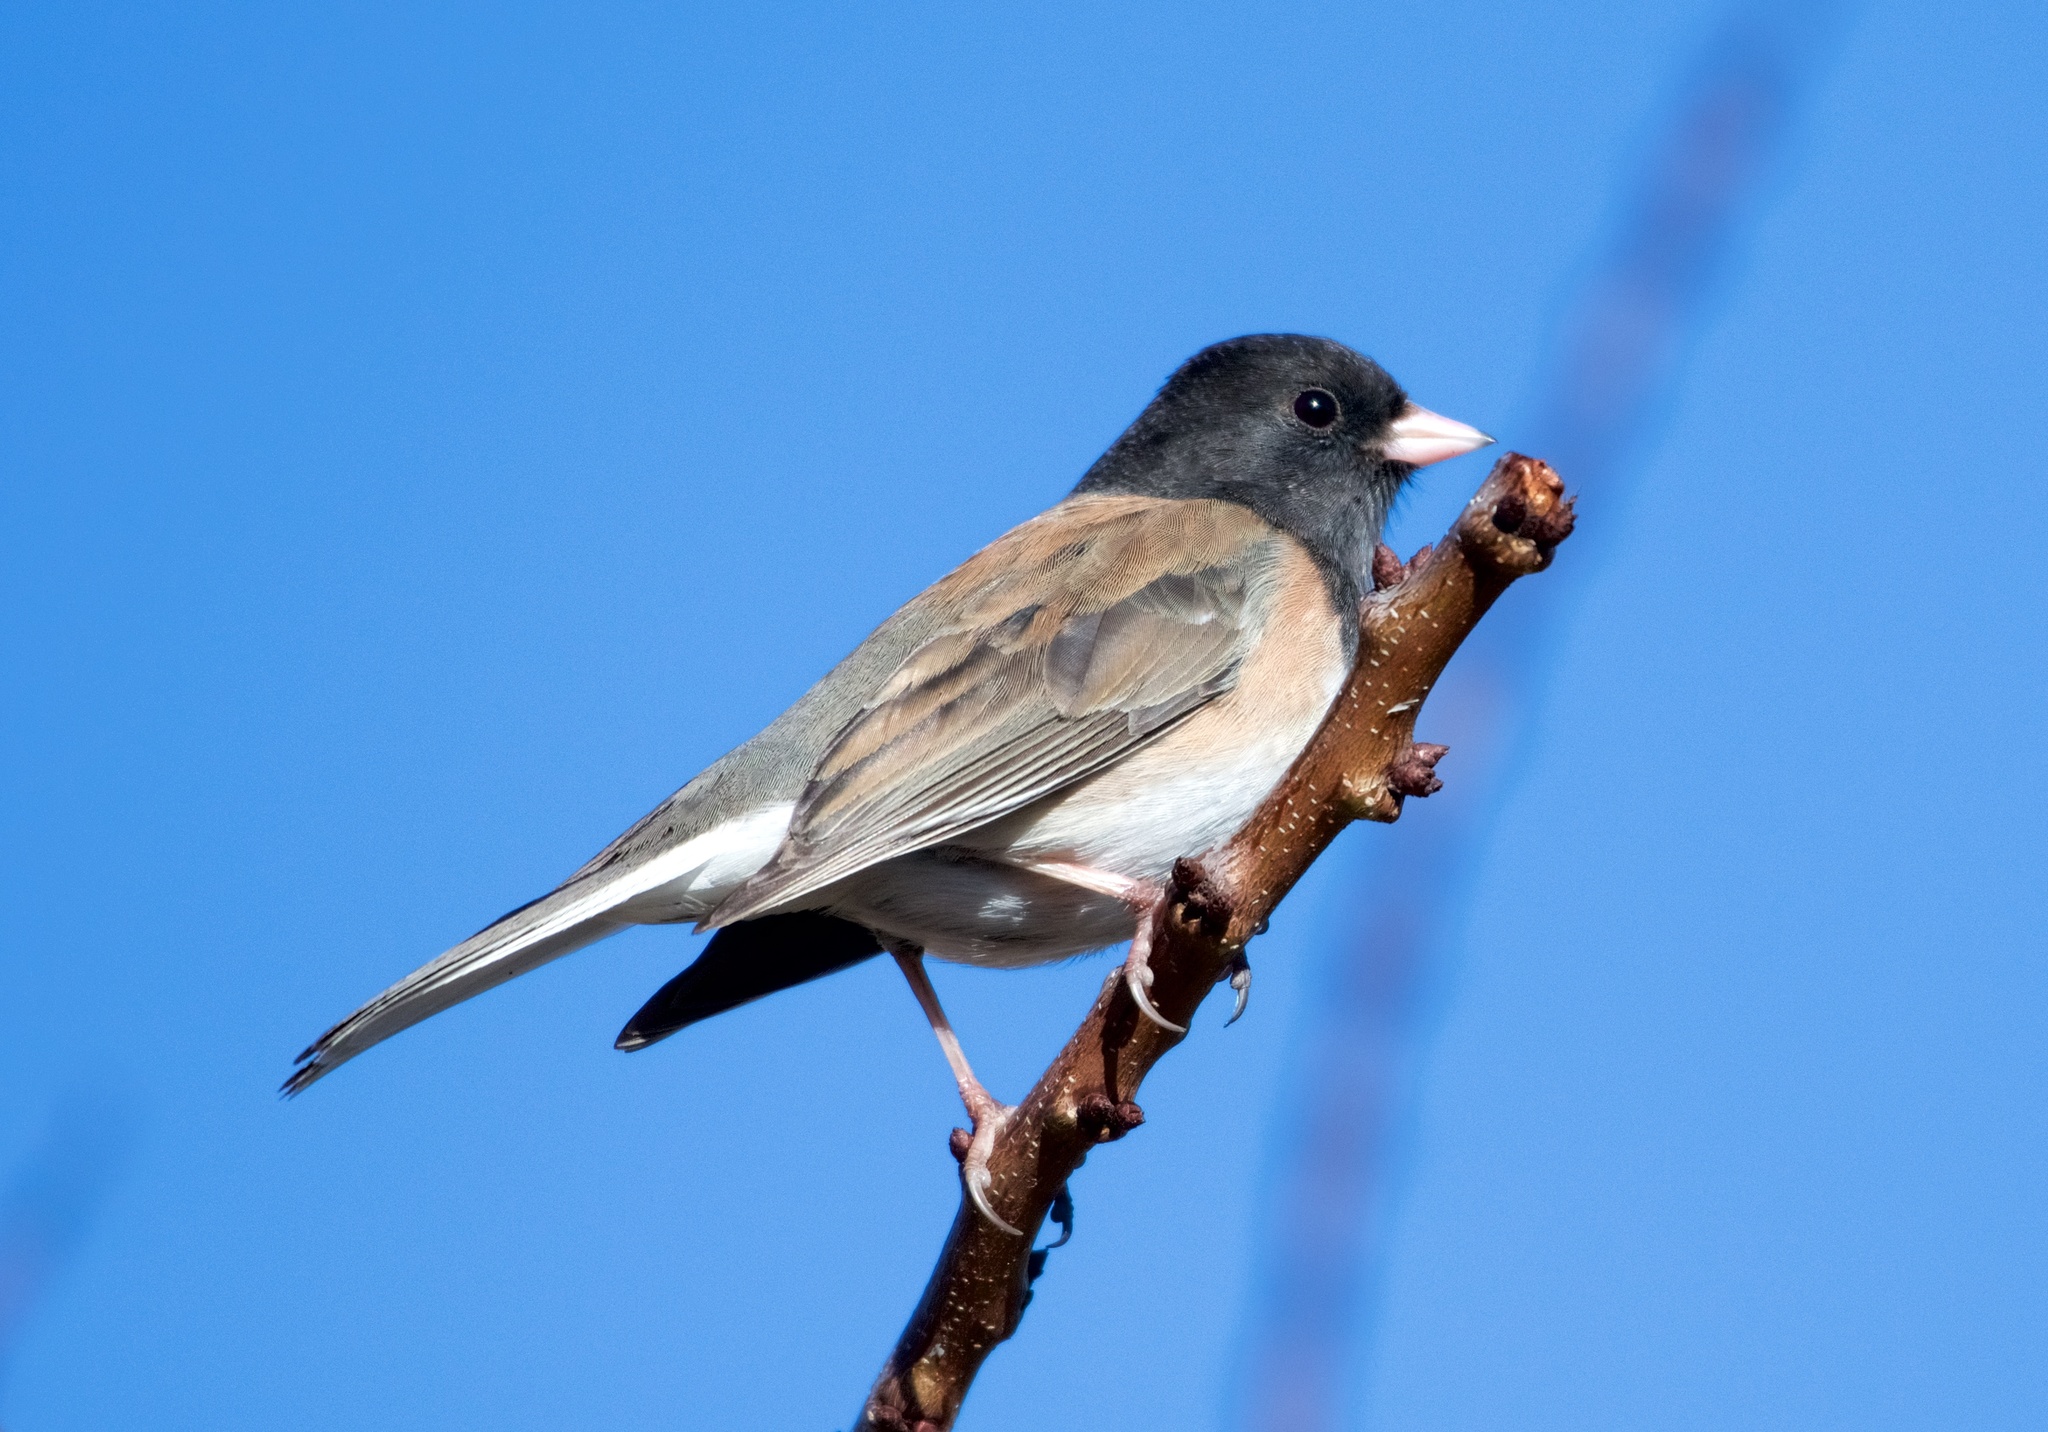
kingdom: Animalia
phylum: Chordata
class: Aves
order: Passeriformes
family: Passerellidae
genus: Junco
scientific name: Junco hyemalis
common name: Dark-eyed junco
